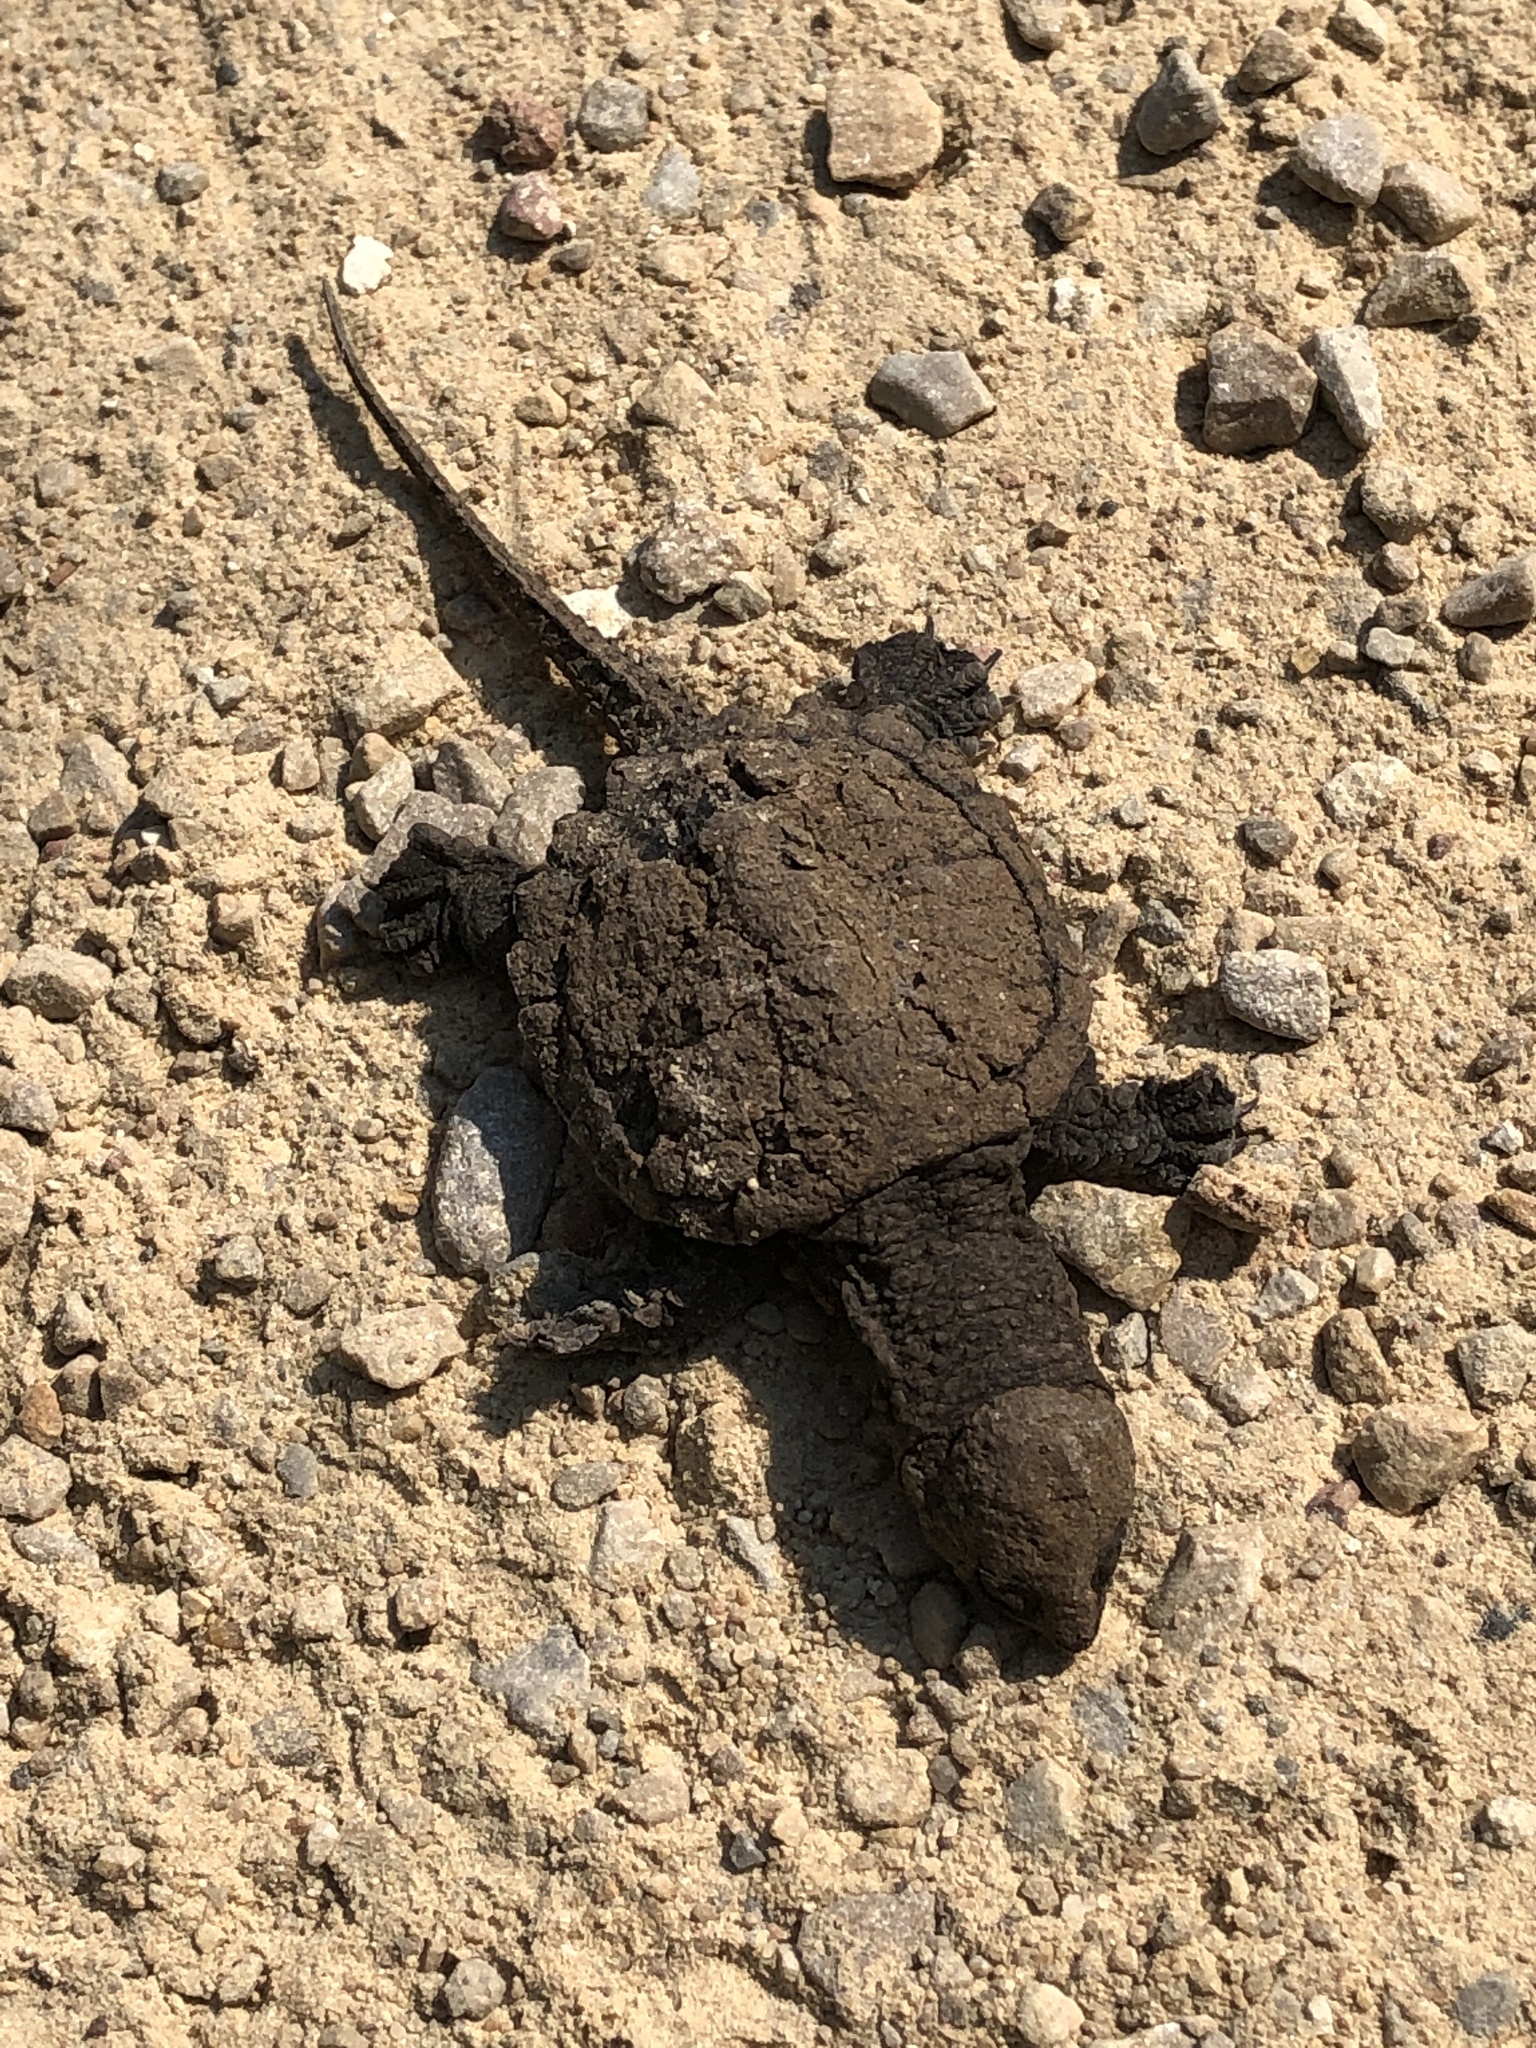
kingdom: Animalia
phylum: Chordata
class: Testudines
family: Chelydridae
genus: Chelydra
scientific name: Chelydra serpentina
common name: Common snapping turtle
